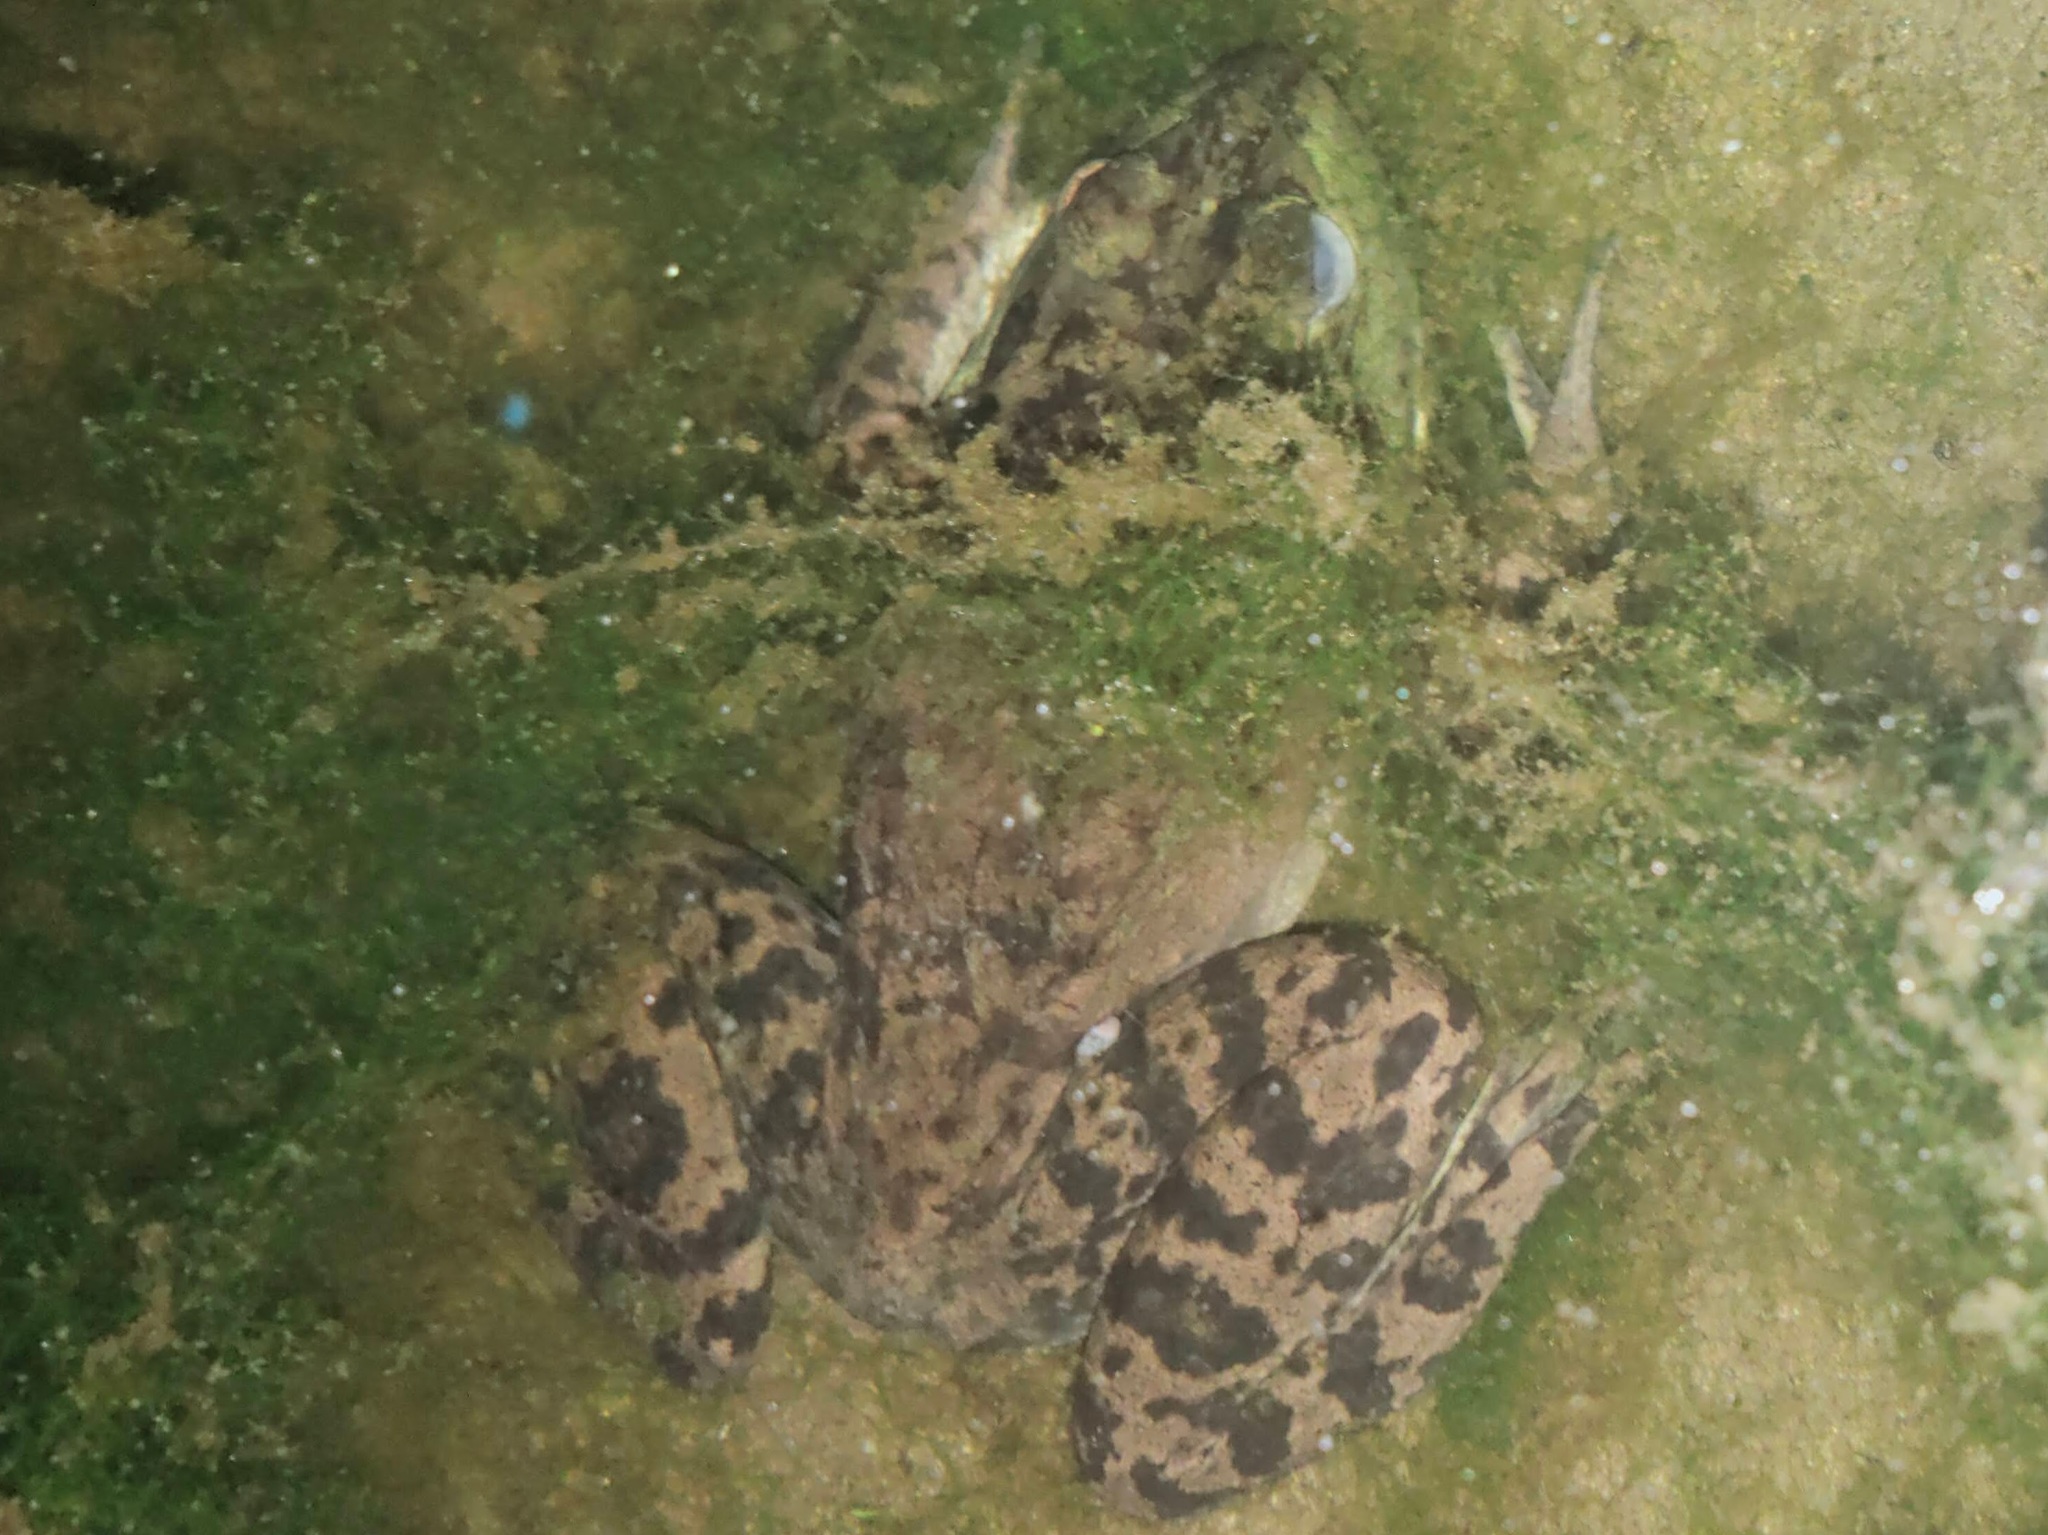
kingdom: Animalia
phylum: Chordata
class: Amphibia
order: Anura
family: Ranidae
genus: Lithobates
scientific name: Lithobates catesbeianus
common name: American bullfrog
